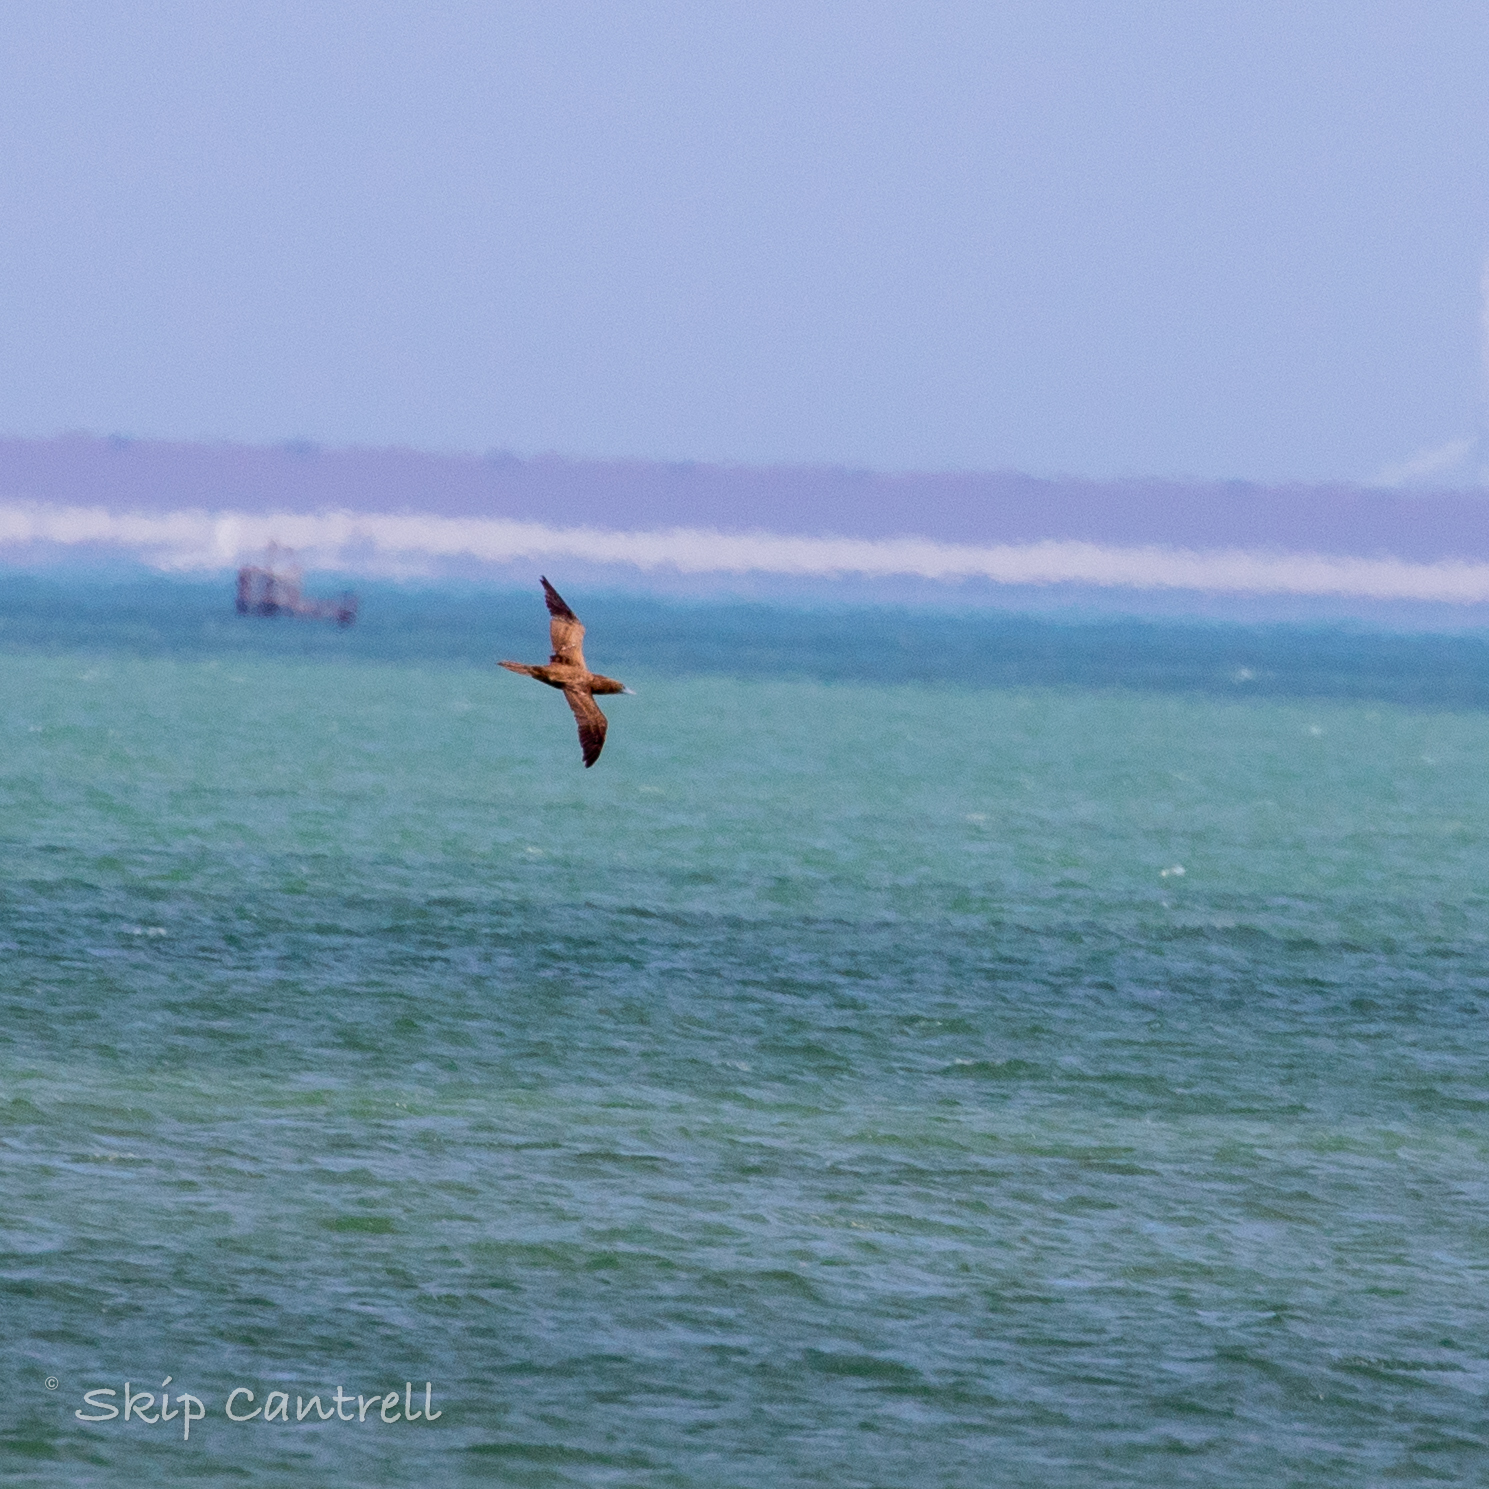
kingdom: Animalia
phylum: Chordata
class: Aves
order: Suliformes
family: Sulidae
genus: Sula
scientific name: Sula leucogaster
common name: Brown booby
